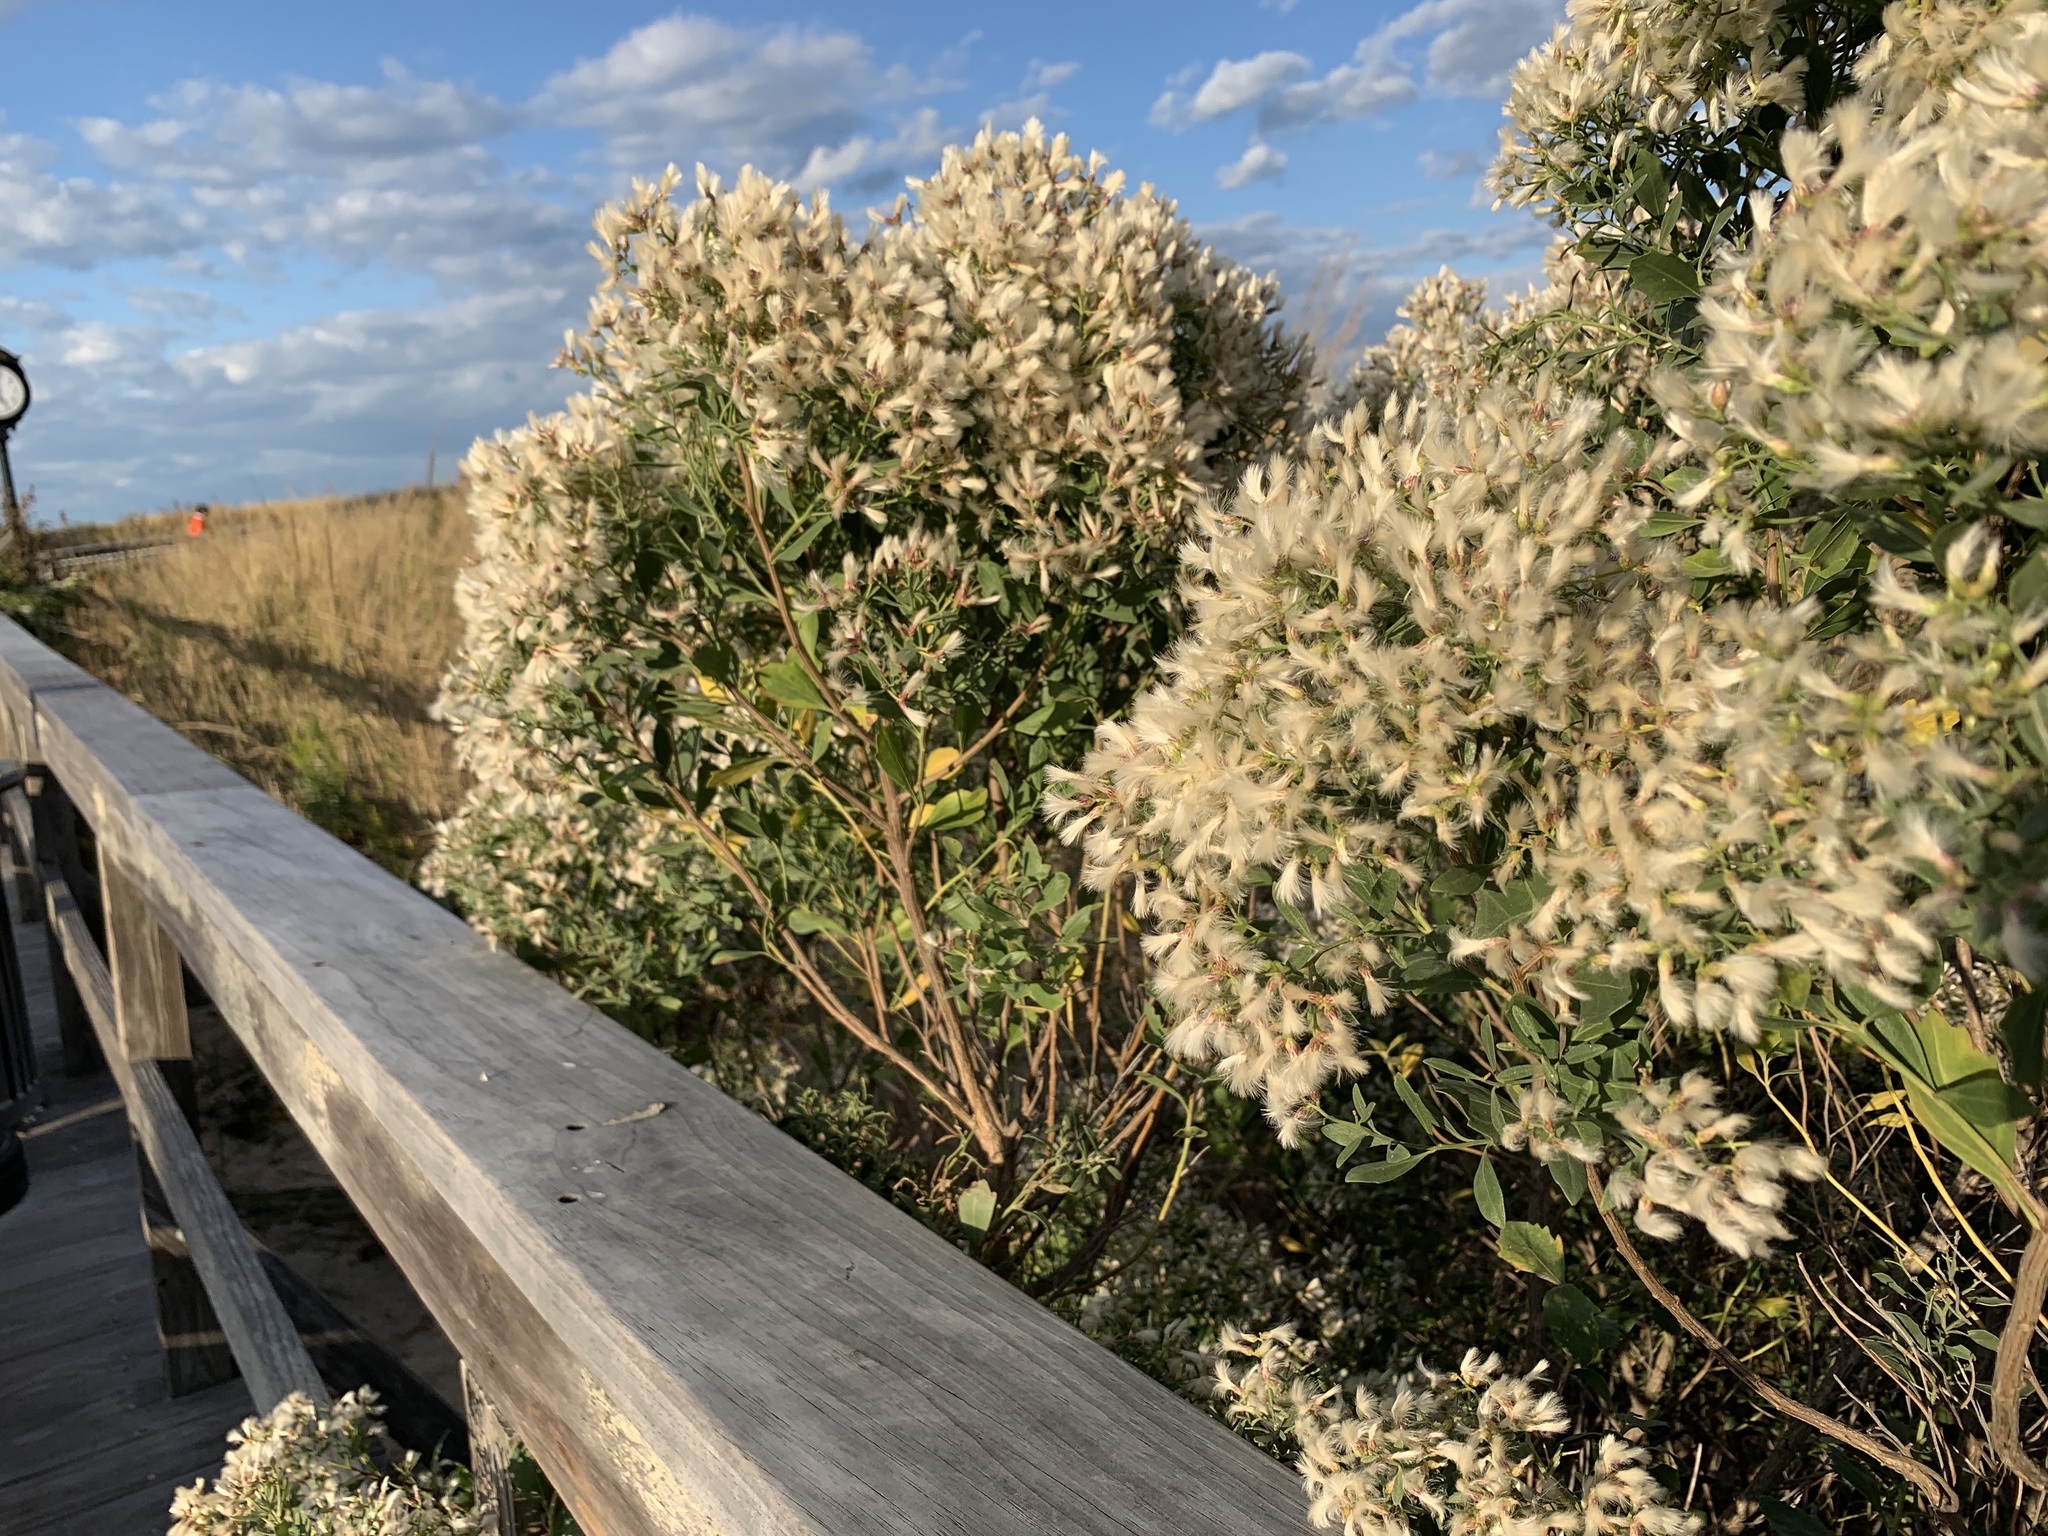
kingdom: Plantae
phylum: Tracheophyta
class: Magnoliopsida
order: Asterales
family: Asteraceae
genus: Baccharis
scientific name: Baccharis halimifolia
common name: Eastern baccharis
